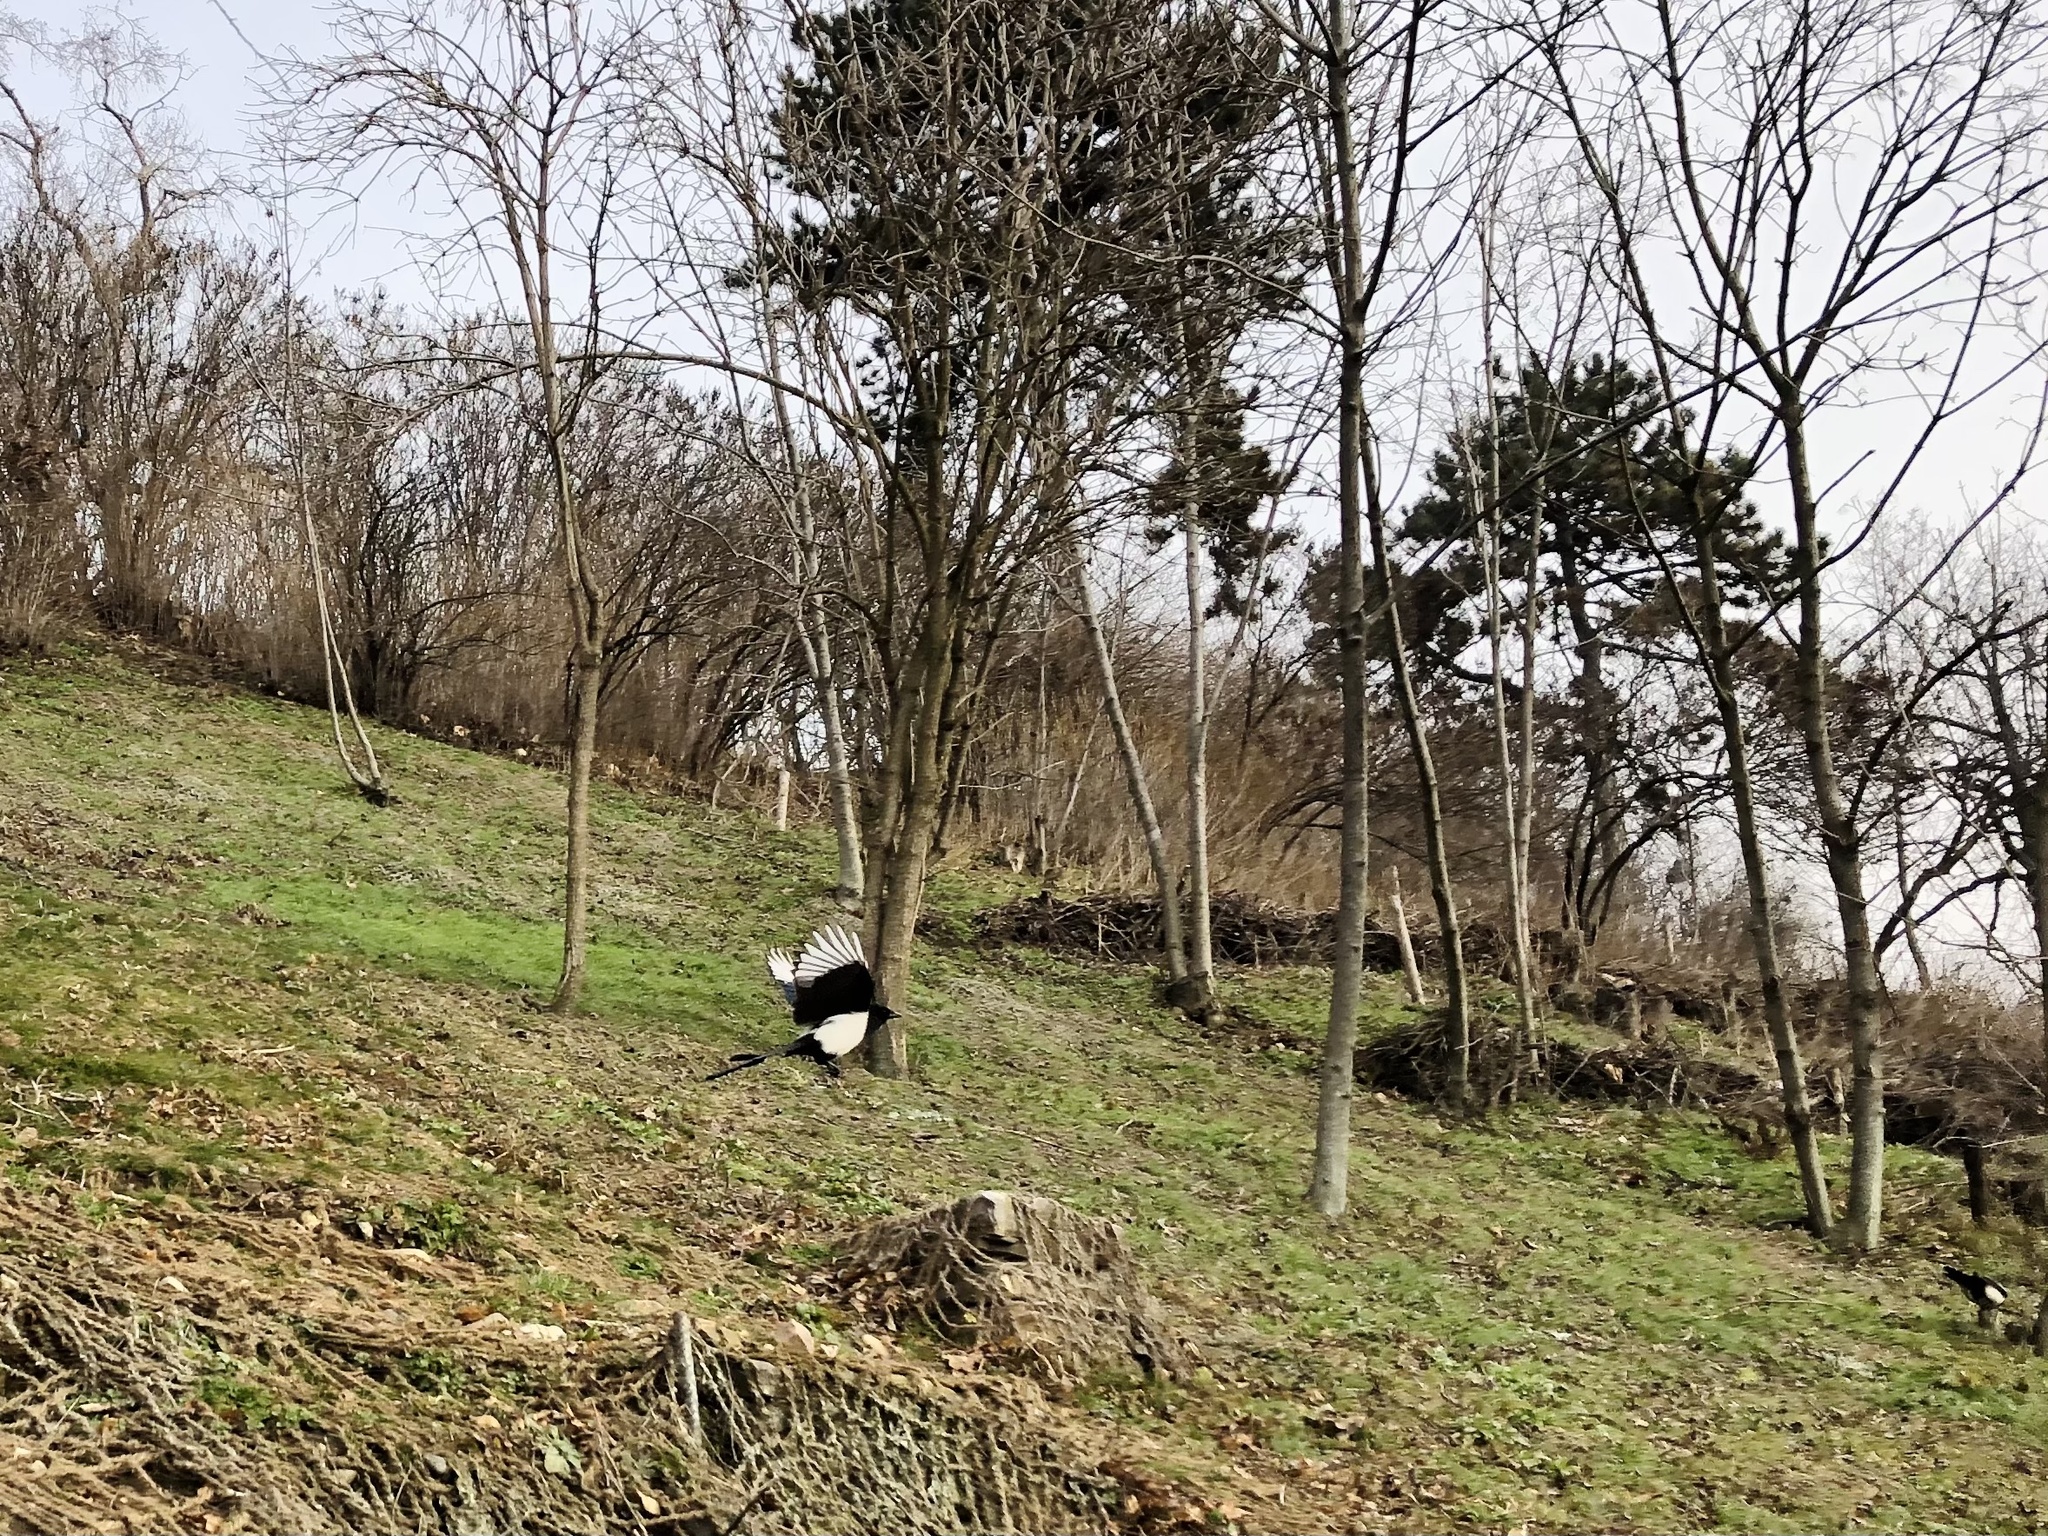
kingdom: Animalia
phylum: Chordata
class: Aves
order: Passeriformes
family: Corvidae
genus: Pica
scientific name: Pica pica
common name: Eurasian magpie
